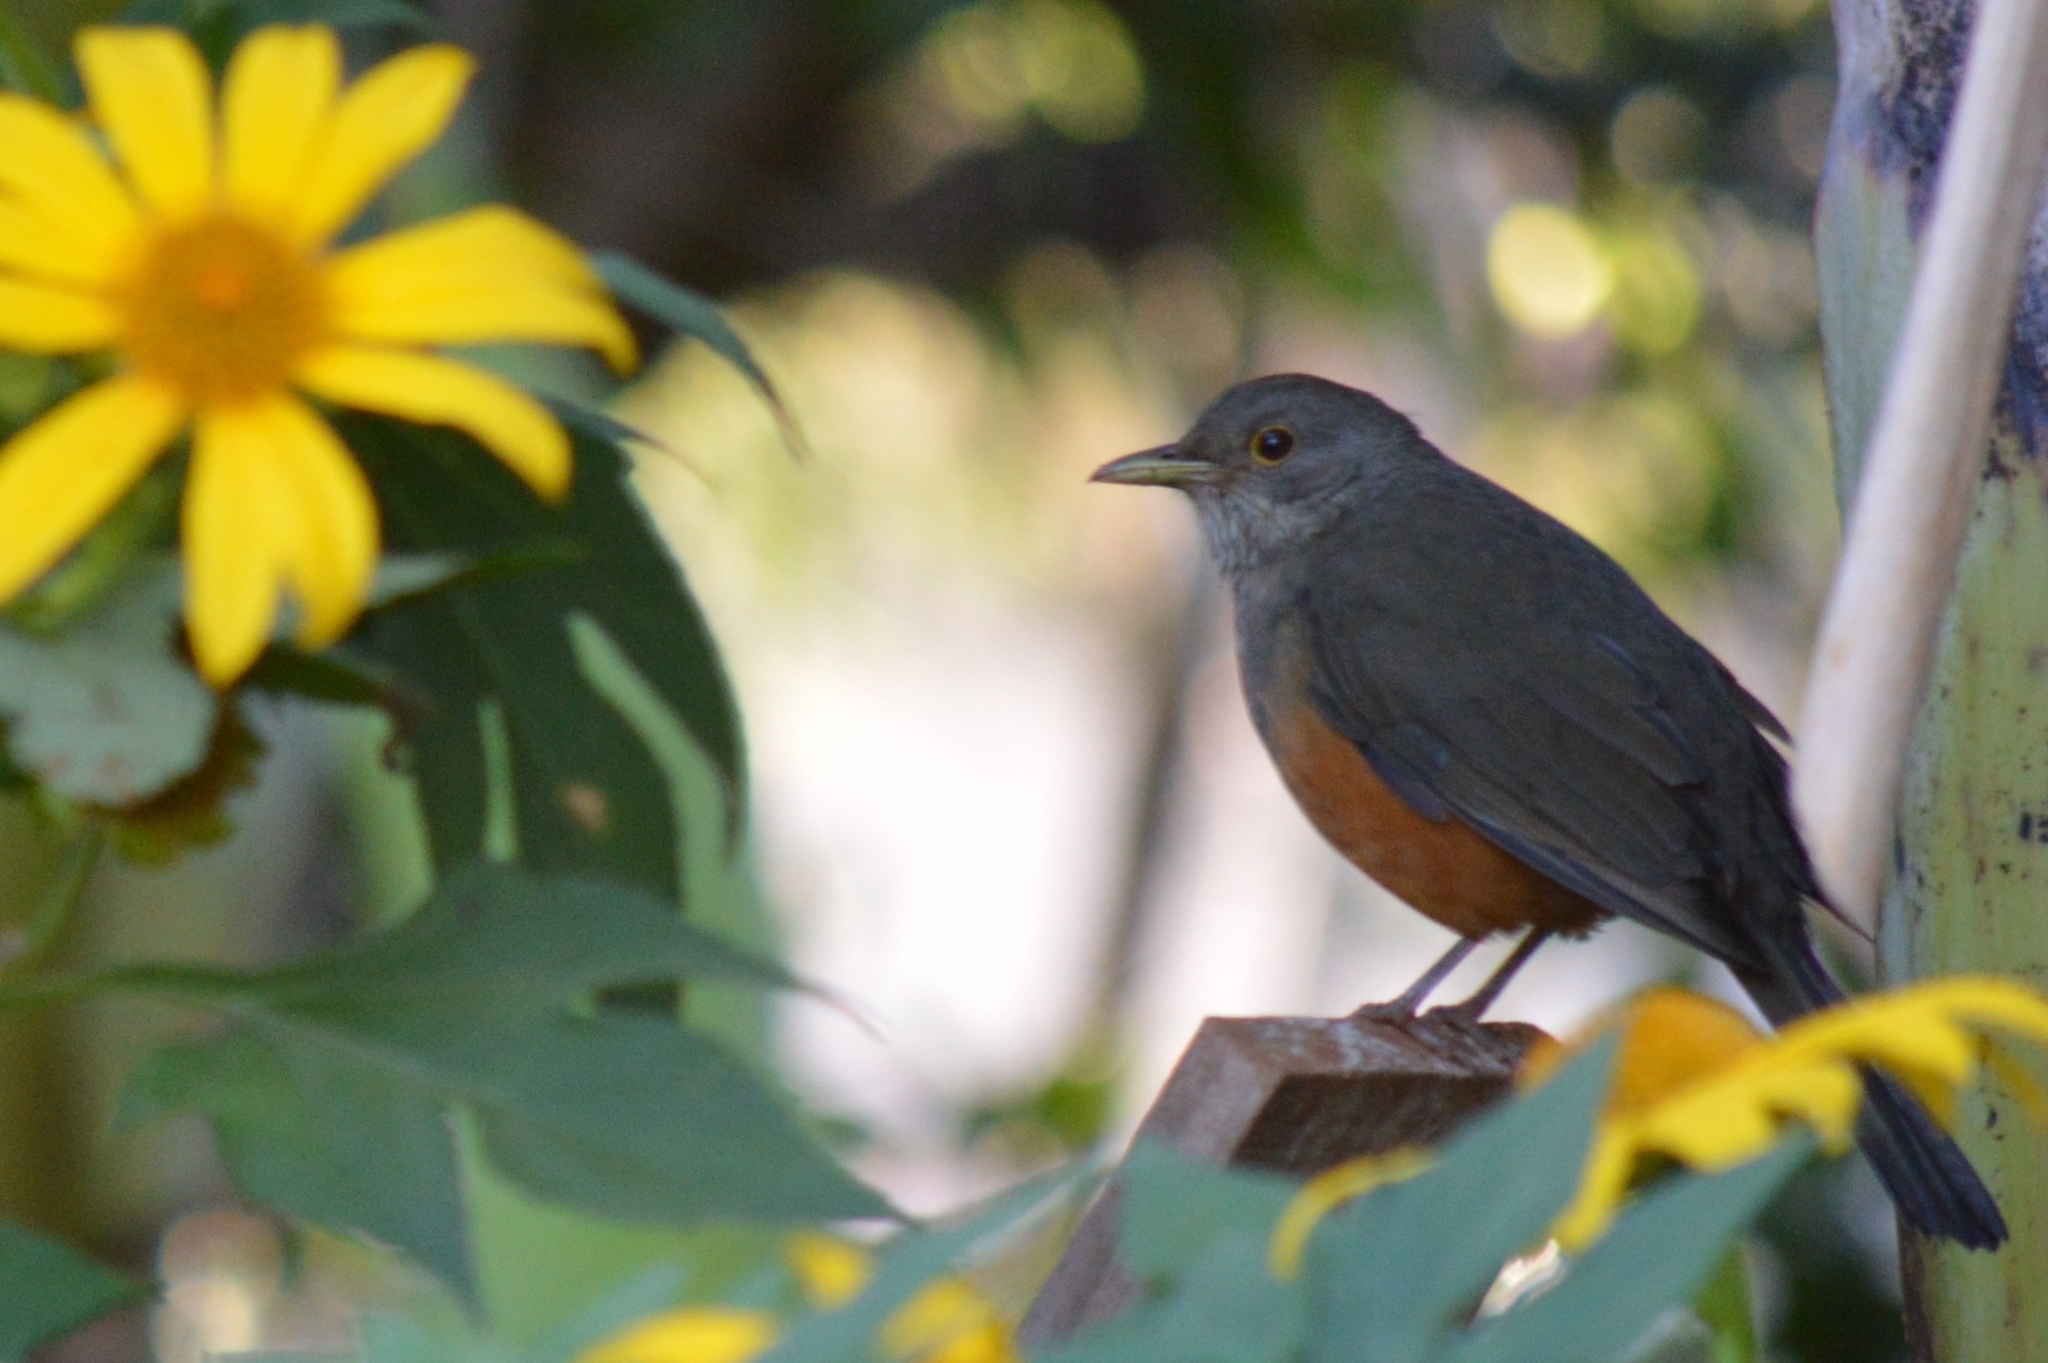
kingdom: Animalia
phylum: Chordata
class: Aves
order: Passeriformes
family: Turdidae
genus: Turdus
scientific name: Turdus rufiventris
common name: Rufous-bellied thrush
